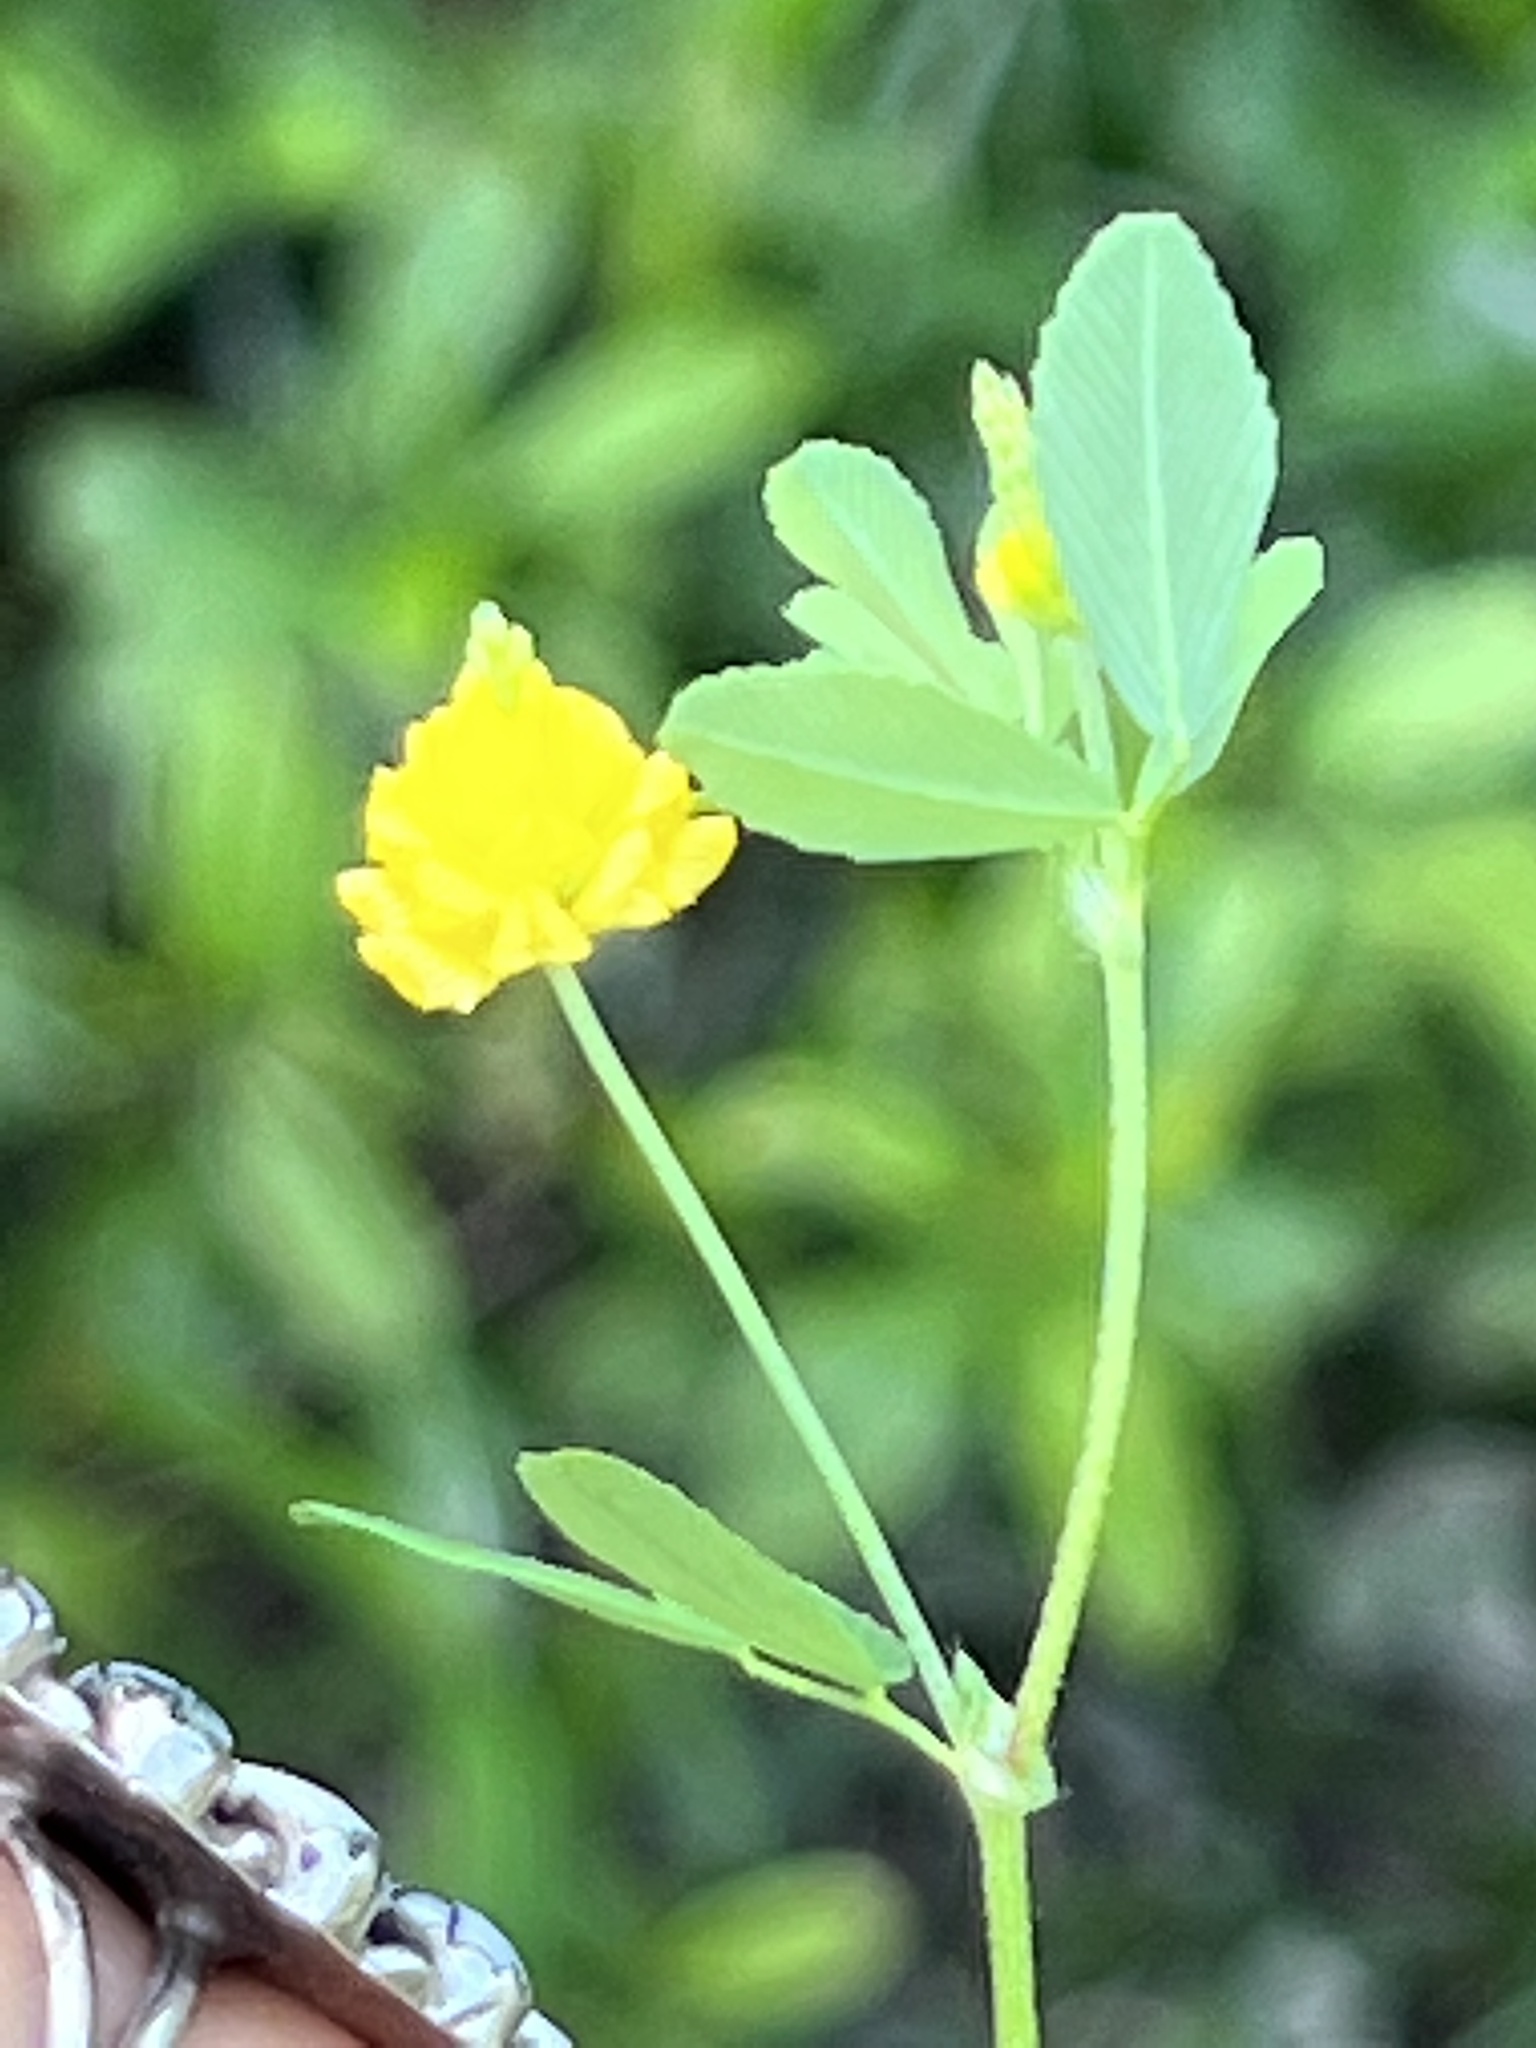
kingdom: Plantae
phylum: Tracheophyta
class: Magnoliopsida
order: Fabales
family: Fabaceae
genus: Trifolium
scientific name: Trifolium campestre
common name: Field clover
